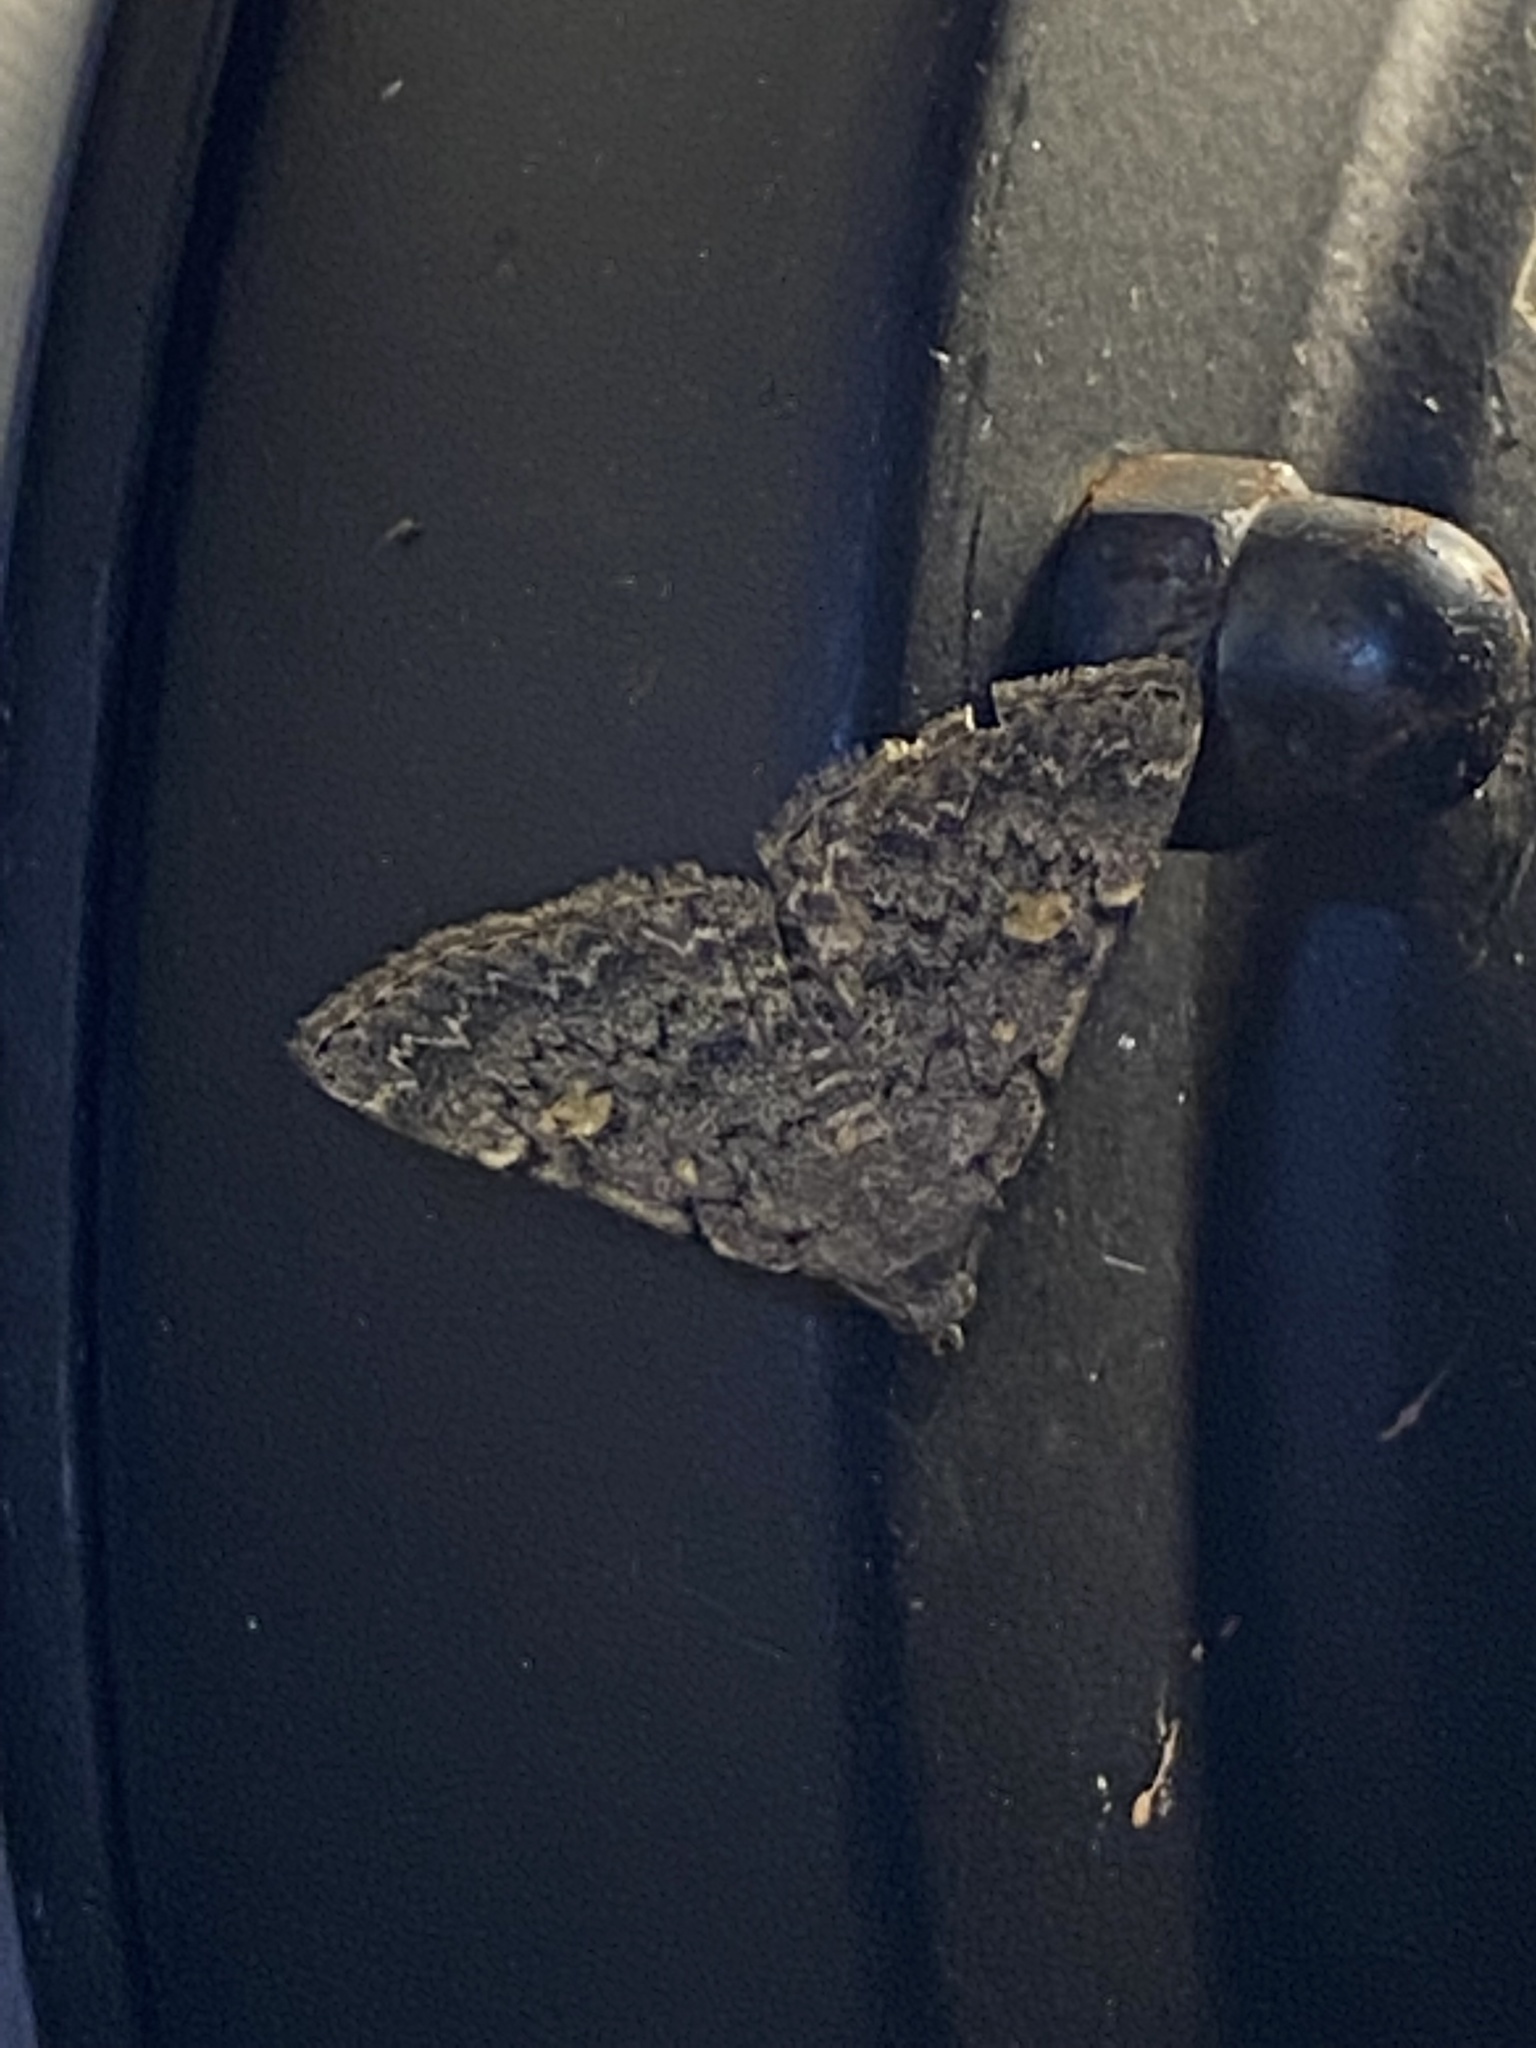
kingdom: Animalia
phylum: Arthropoda
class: Insecta
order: Lepidoptera
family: Erebidae
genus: Idia
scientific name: Idia aemula
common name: Common idia moth
